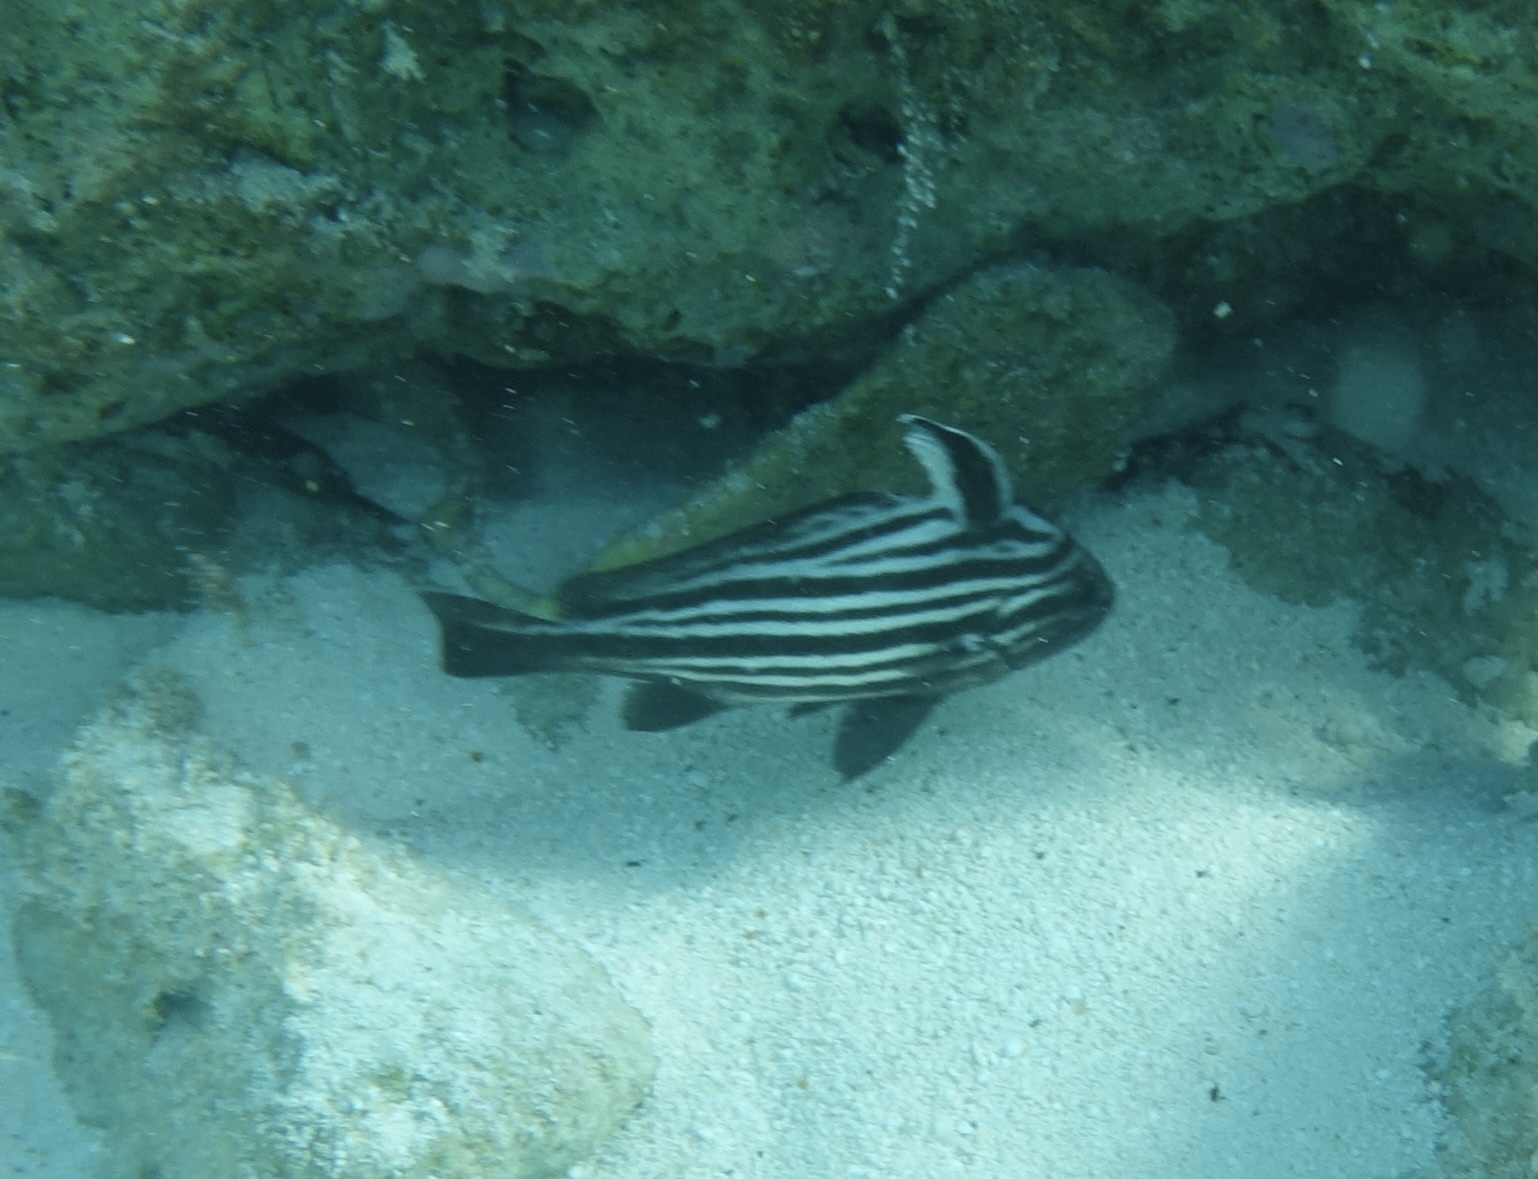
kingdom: Animalia
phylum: Chordata
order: Perciformes
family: Sciaenidae
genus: Pareques
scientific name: Pareques acuminatus
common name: High-hat
